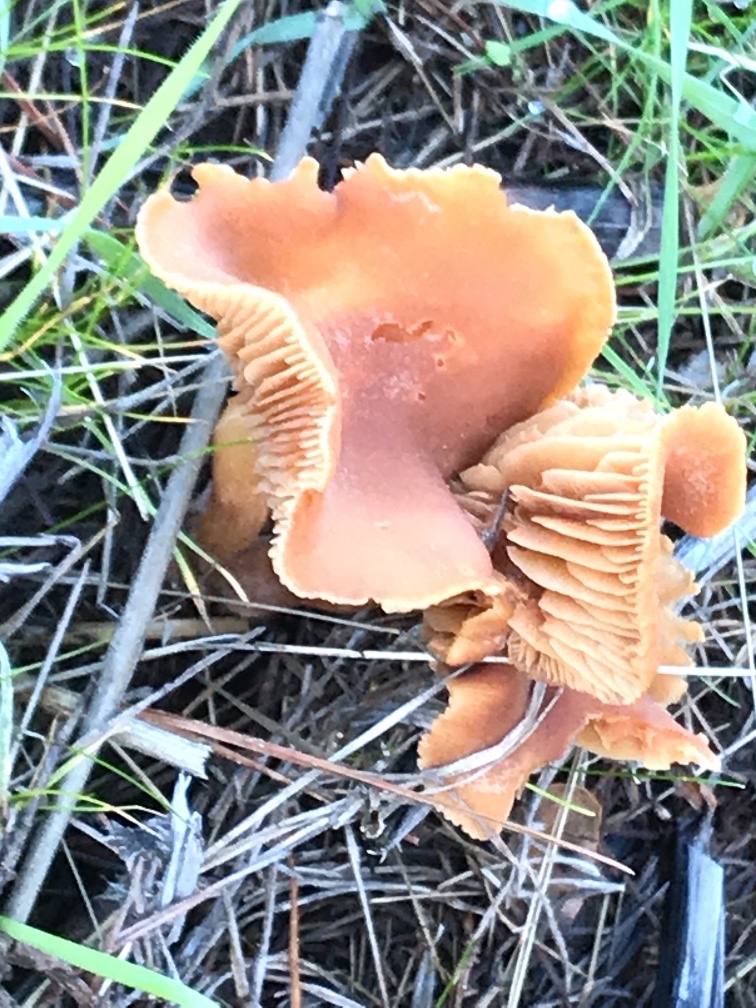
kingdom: Fungi
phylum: Basidiomycota
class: Agaricomycetes
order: Agaricales
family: Hydnangiaceae
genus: Laccaria
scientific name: Laccaria laccata
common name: Deceiver
